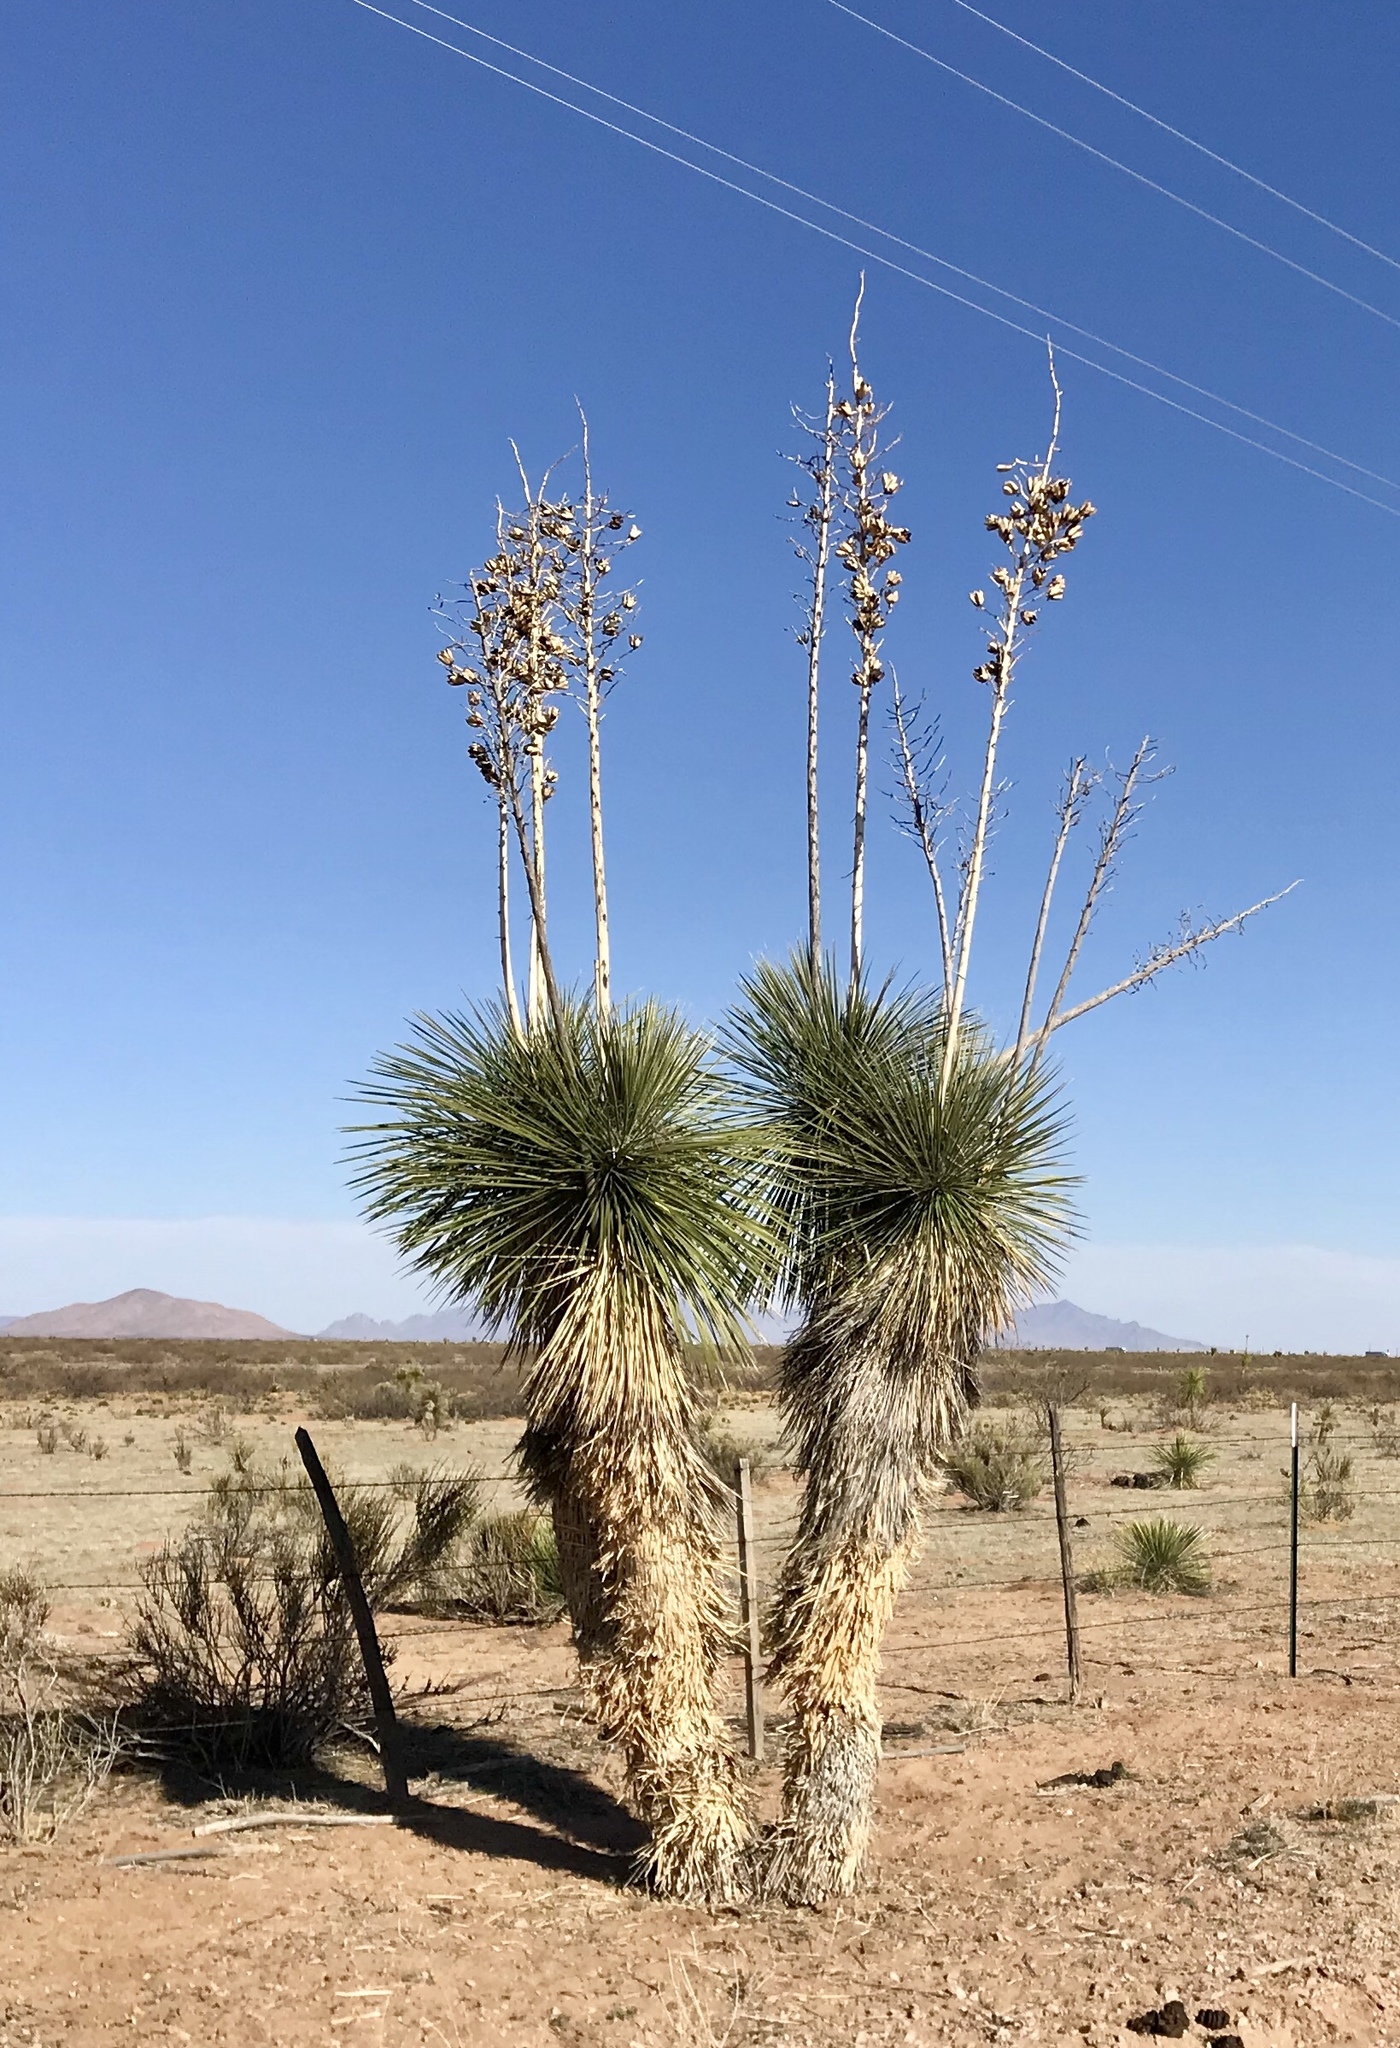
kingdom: Plantae
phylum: Tracheophyta
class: Liliopsida
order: Asparagales
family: Asparagaceae
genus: Yucca
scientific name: Yucca elata
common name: Palmella
